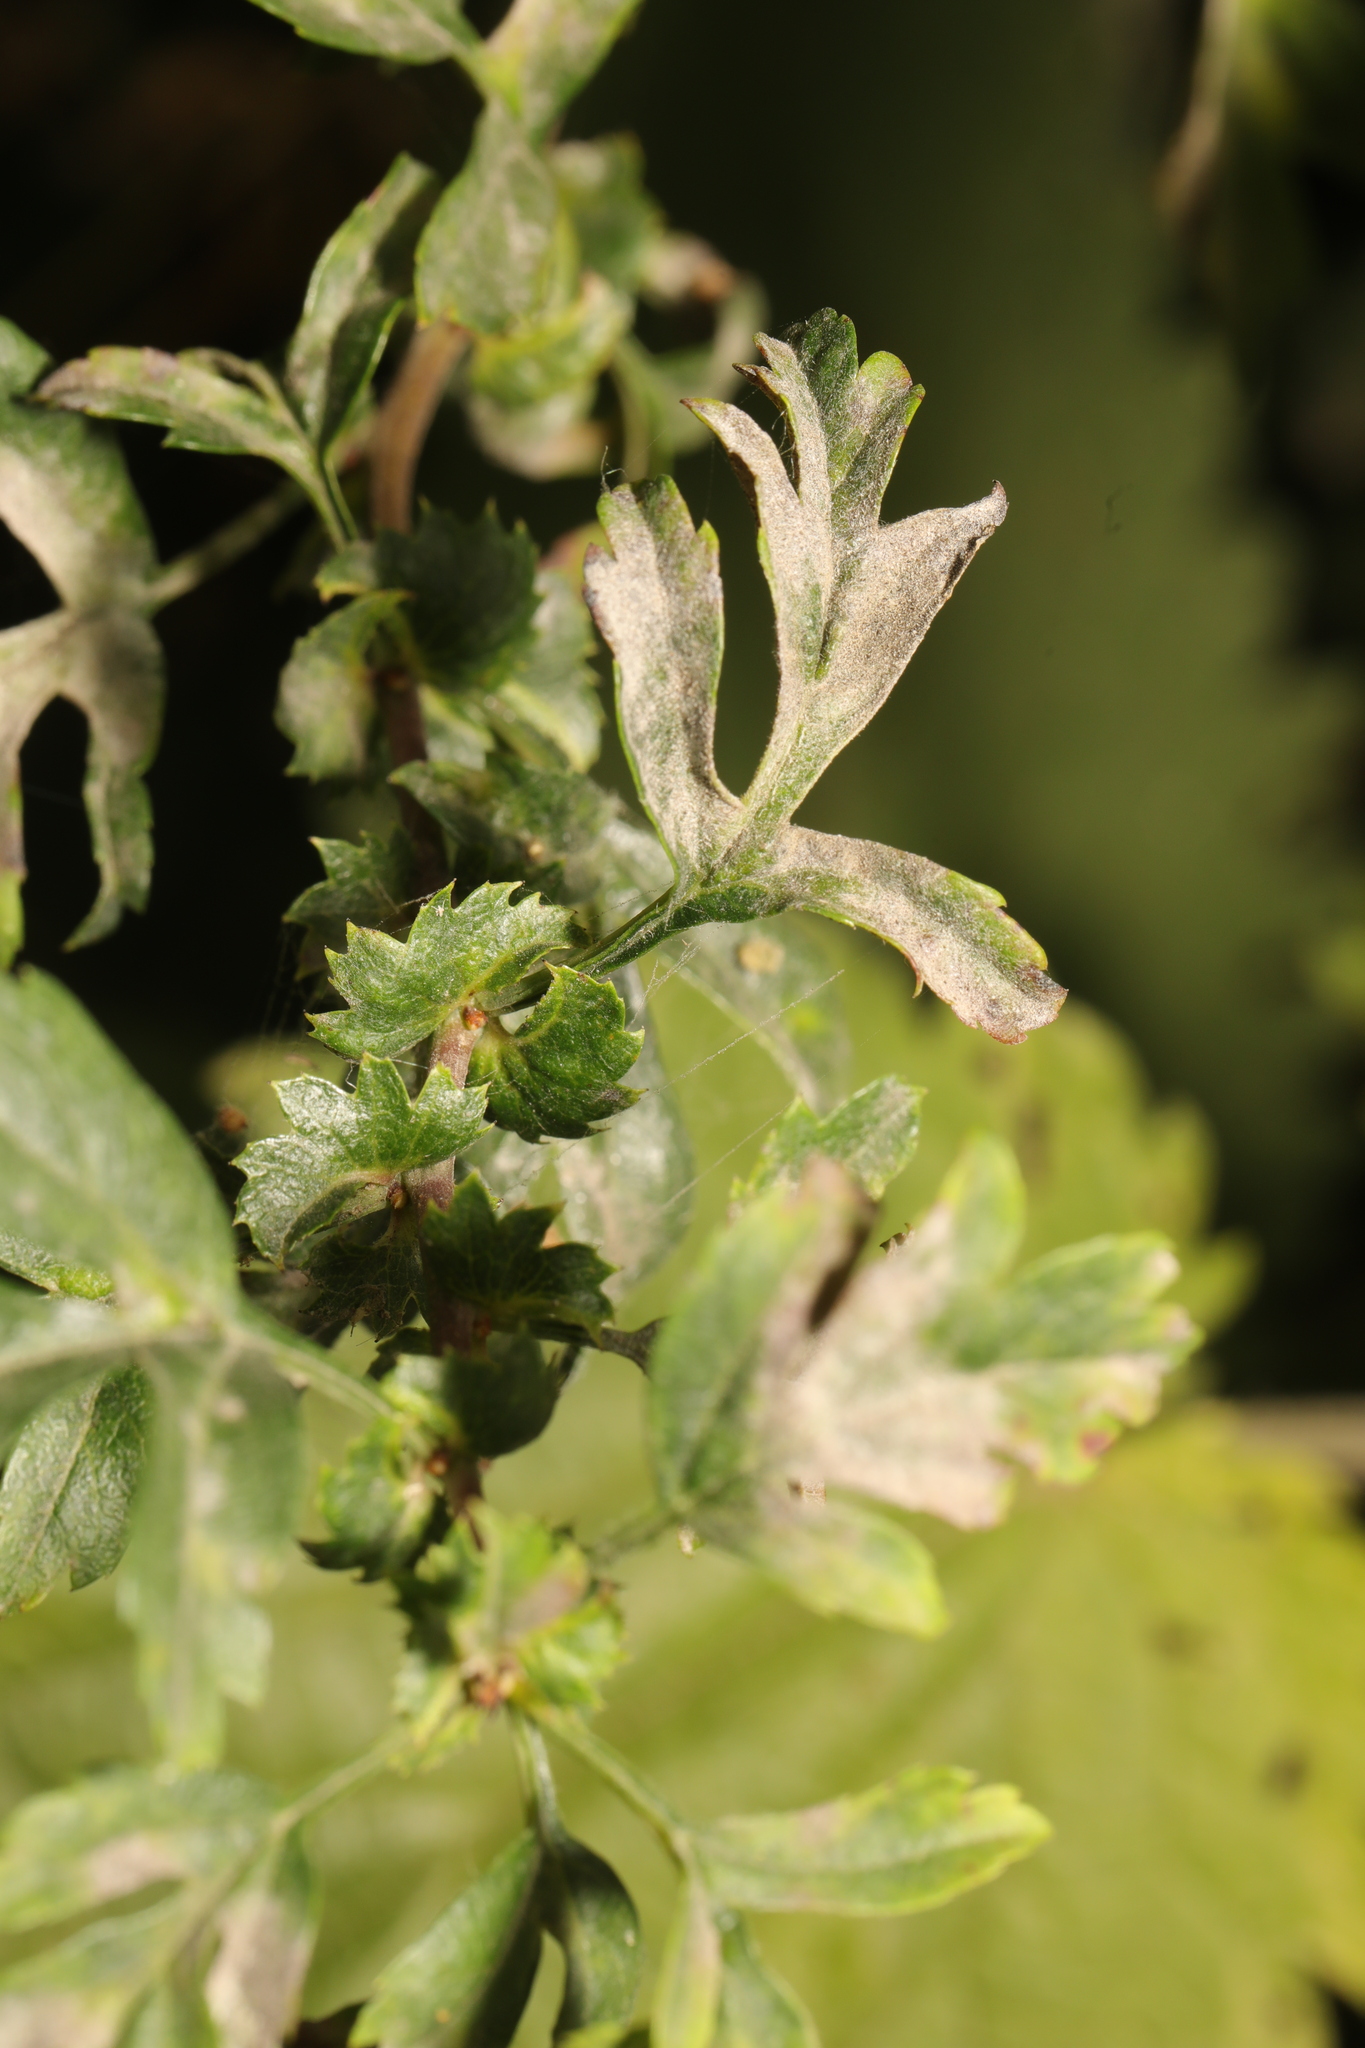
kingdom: Fungi
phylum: Ascomycota
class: Leotiomycetes
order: Helotiales
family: Erysiphaceae
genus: Podosphaera
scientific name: Podosphaera clandestina
